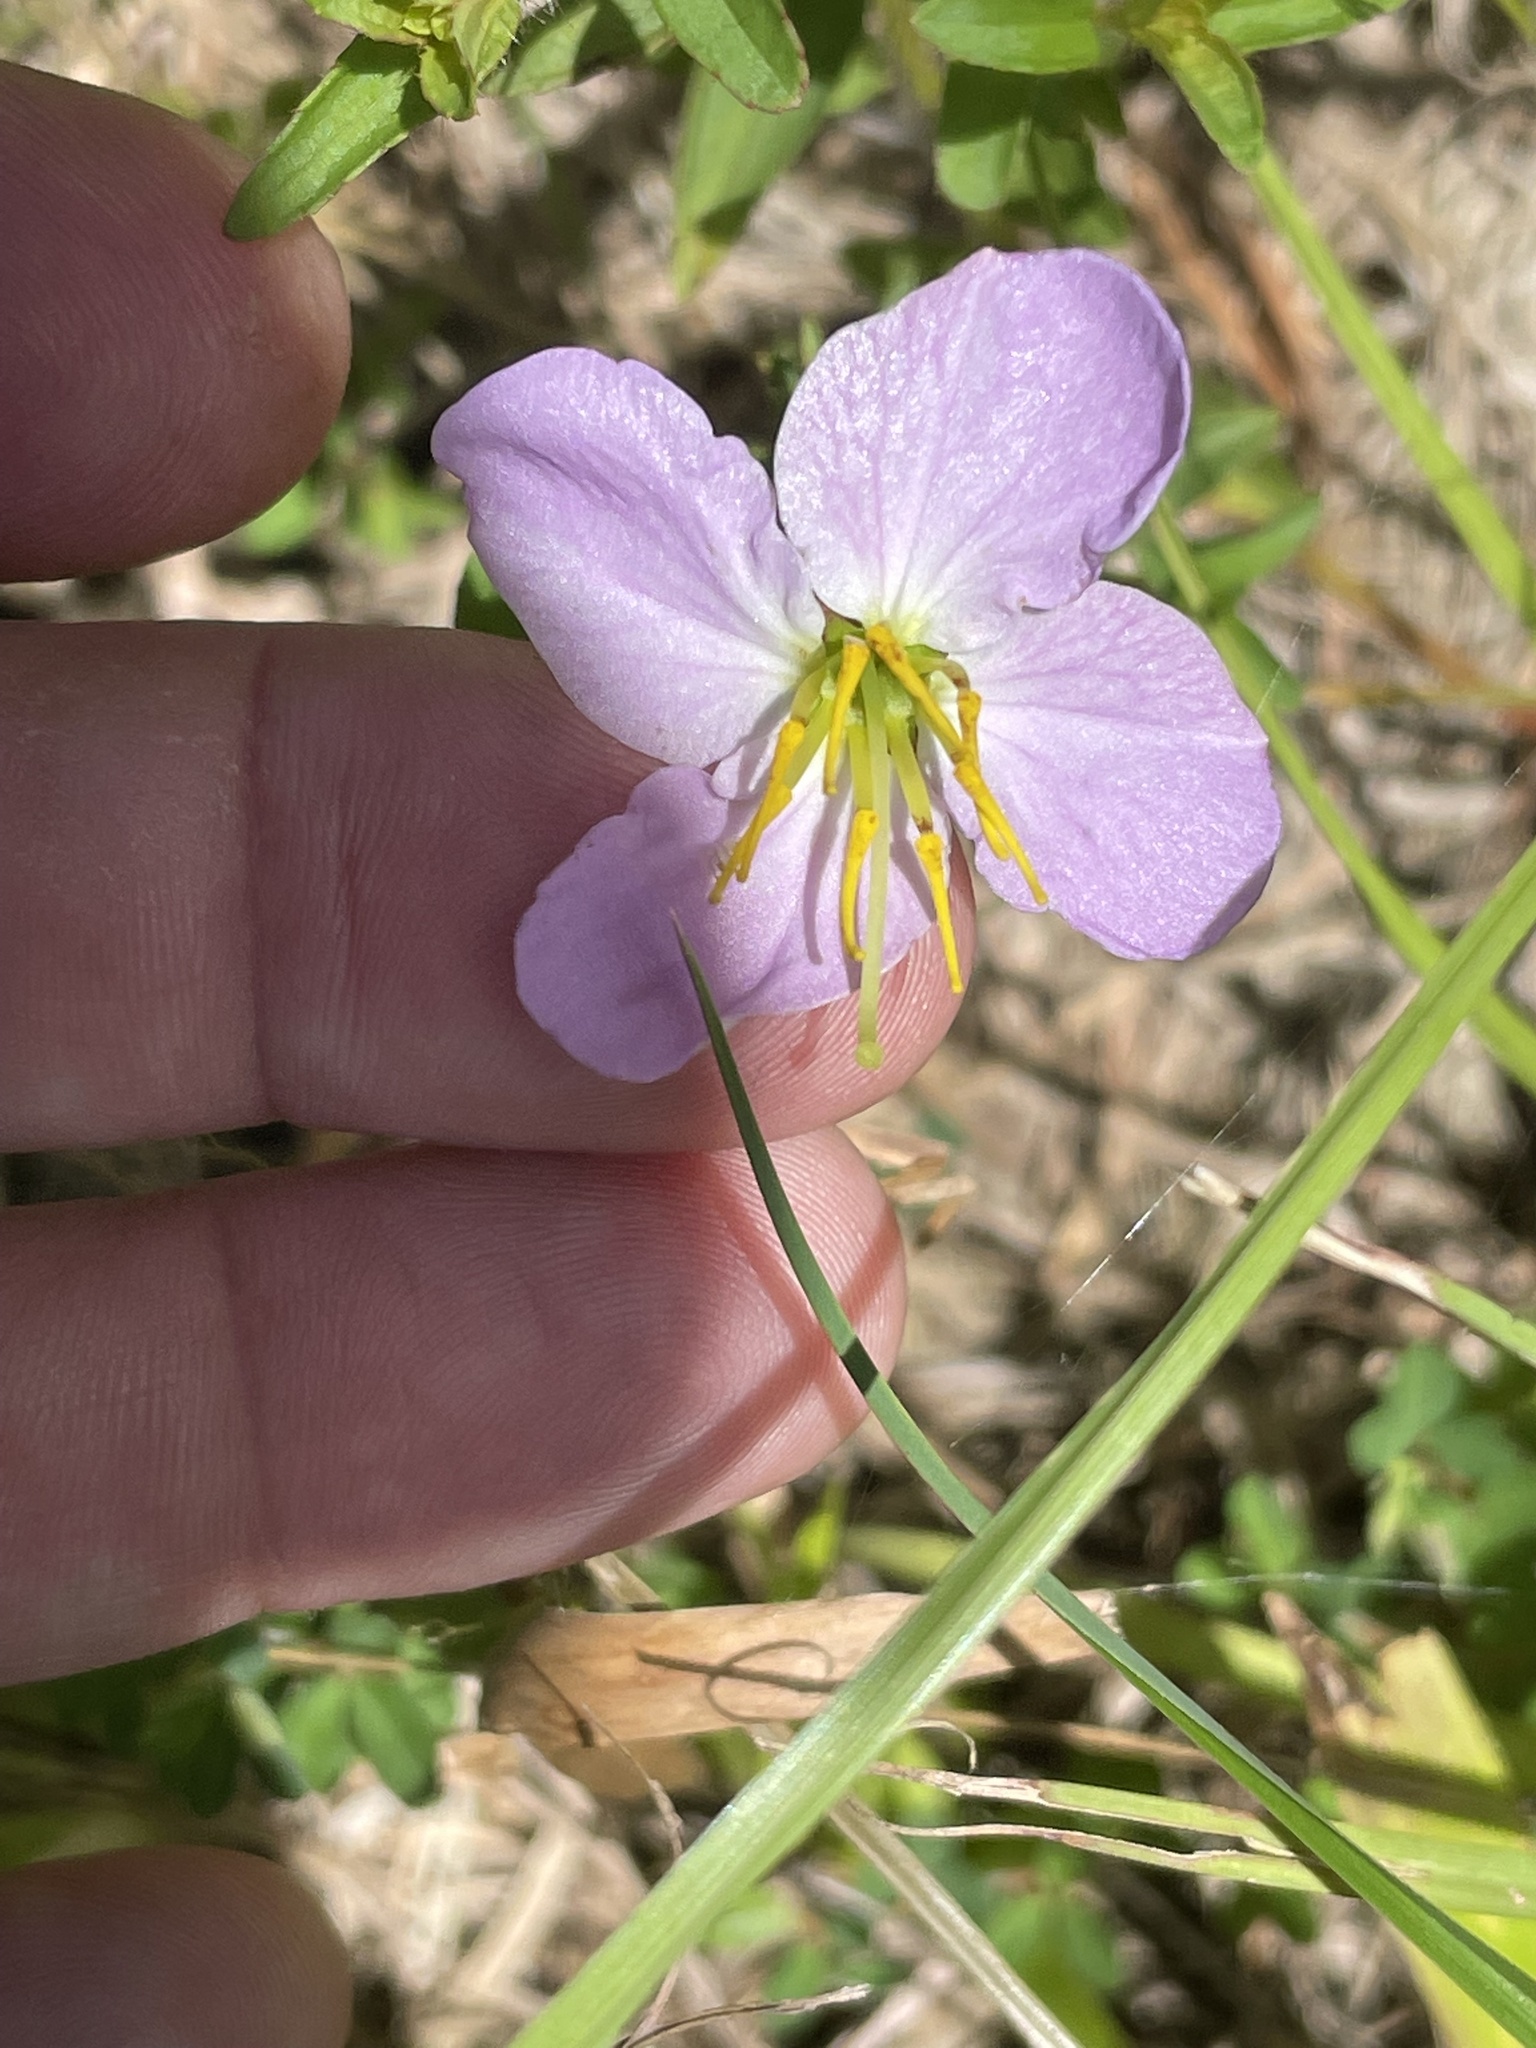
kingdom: Plantae
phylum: Tracheophyta
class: Magnoliopsida
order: Myrtales
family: Melastomataceae
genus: Rhexia
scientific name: Rhexia mariana
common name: Dull meadow-pitcher
